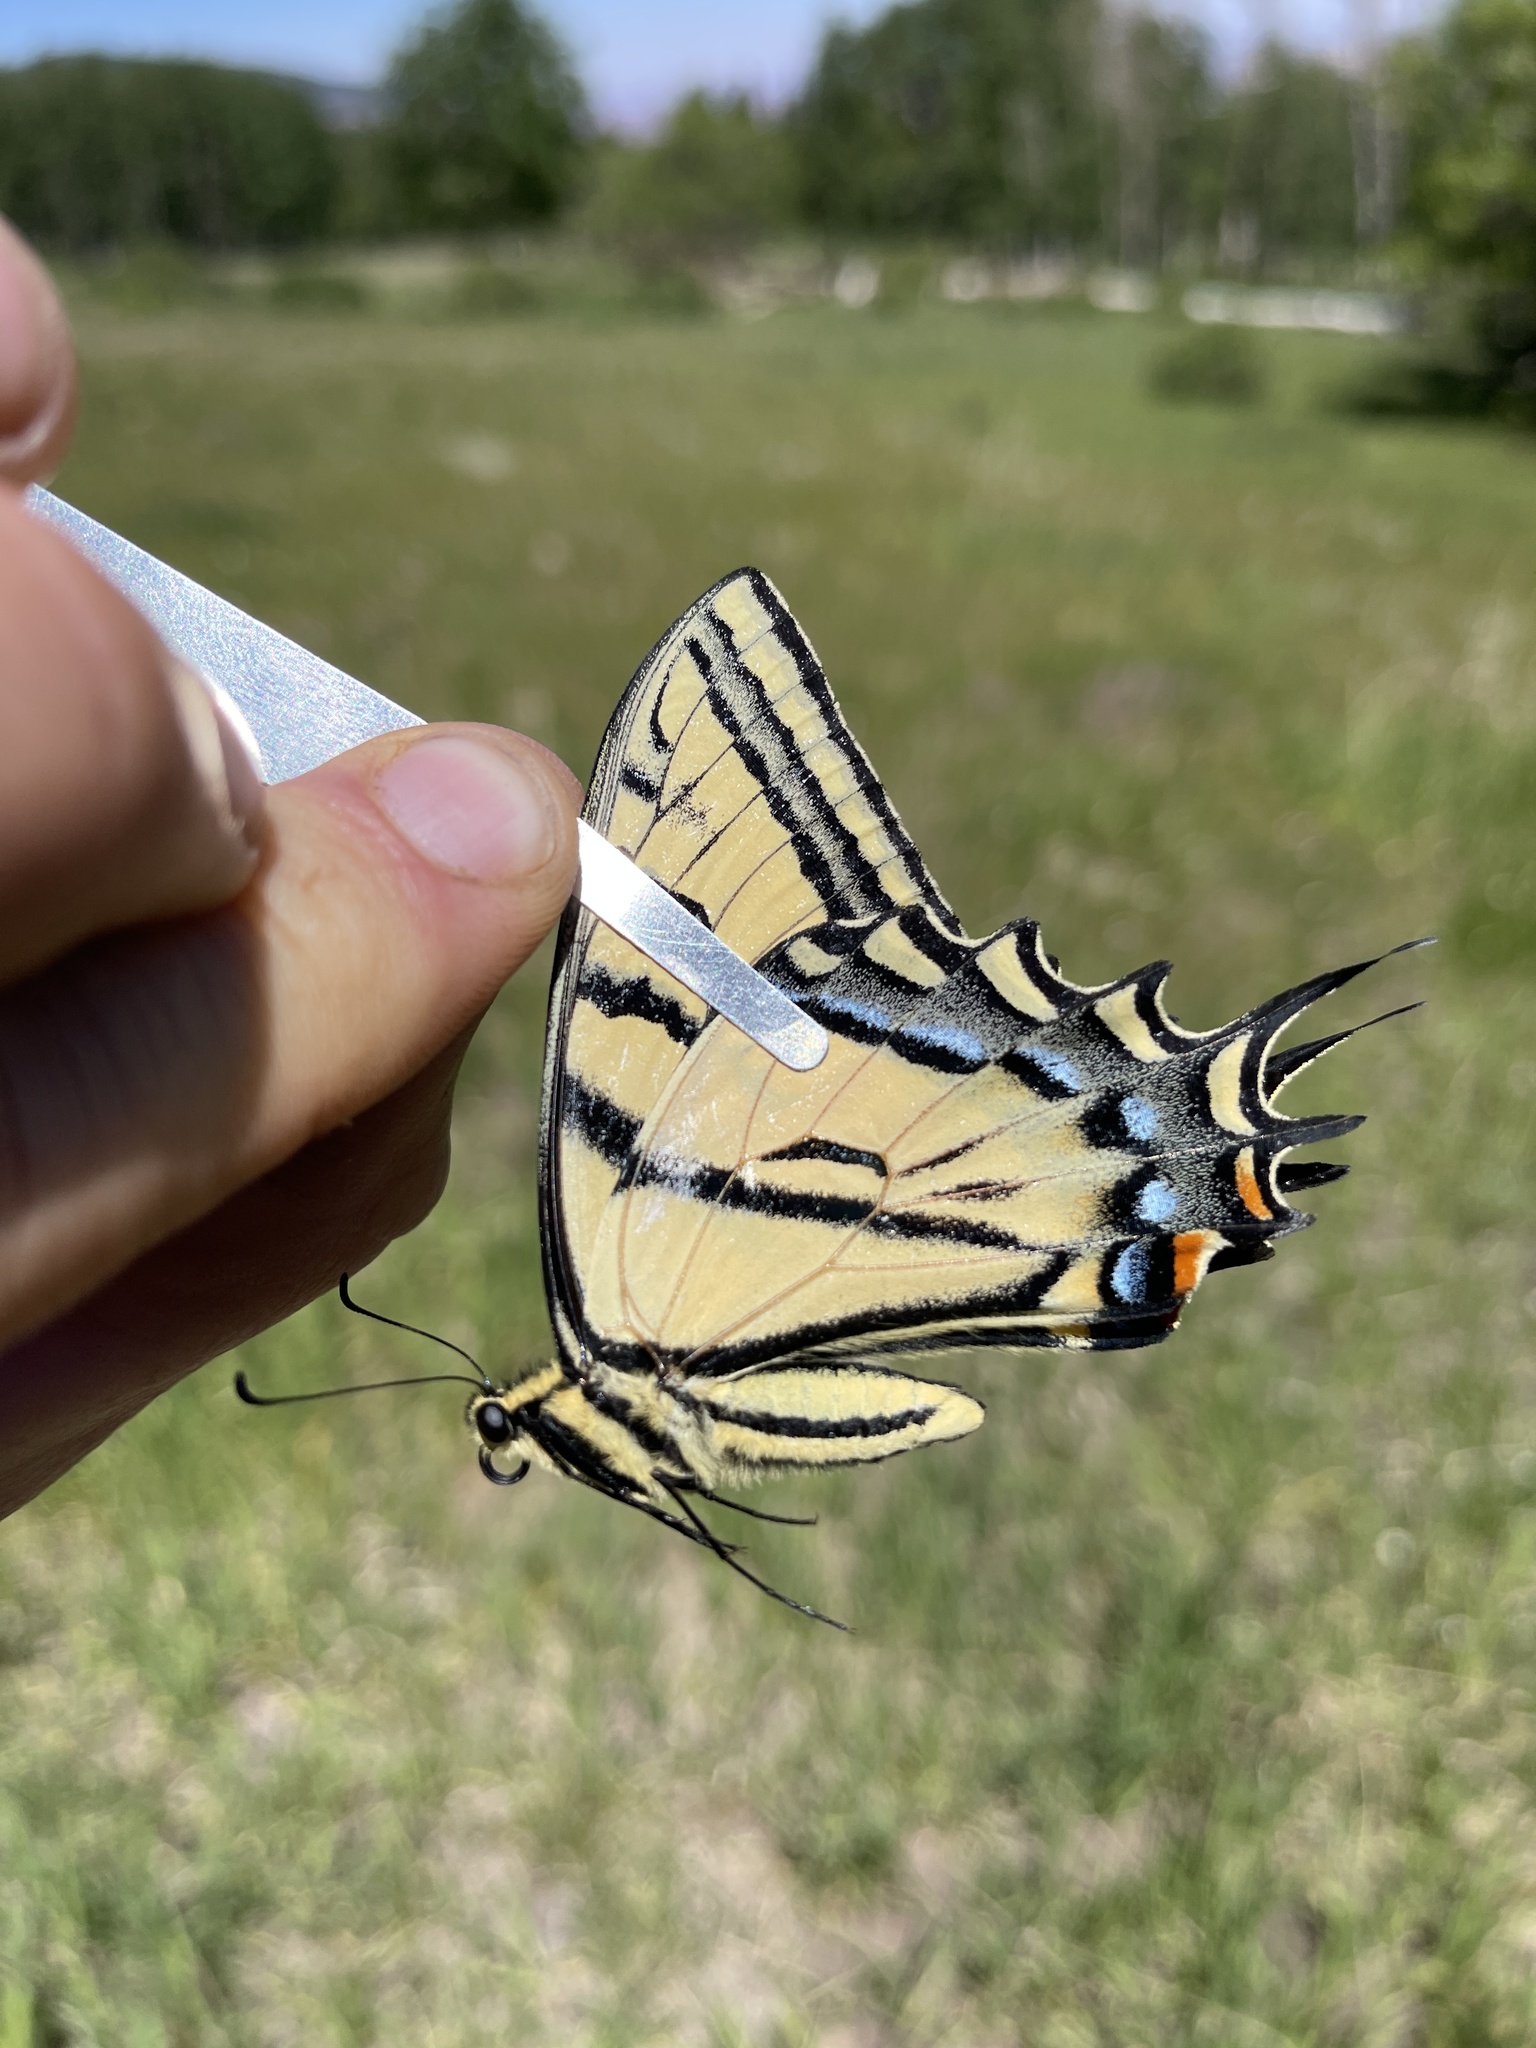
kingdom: Animalia
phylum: Arthropoda
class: Insecta
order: Lepidoptera
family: Papilionidae
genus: Papilio
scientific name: Papilio multicaudata
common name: Two-tailed tiger swallowtail
